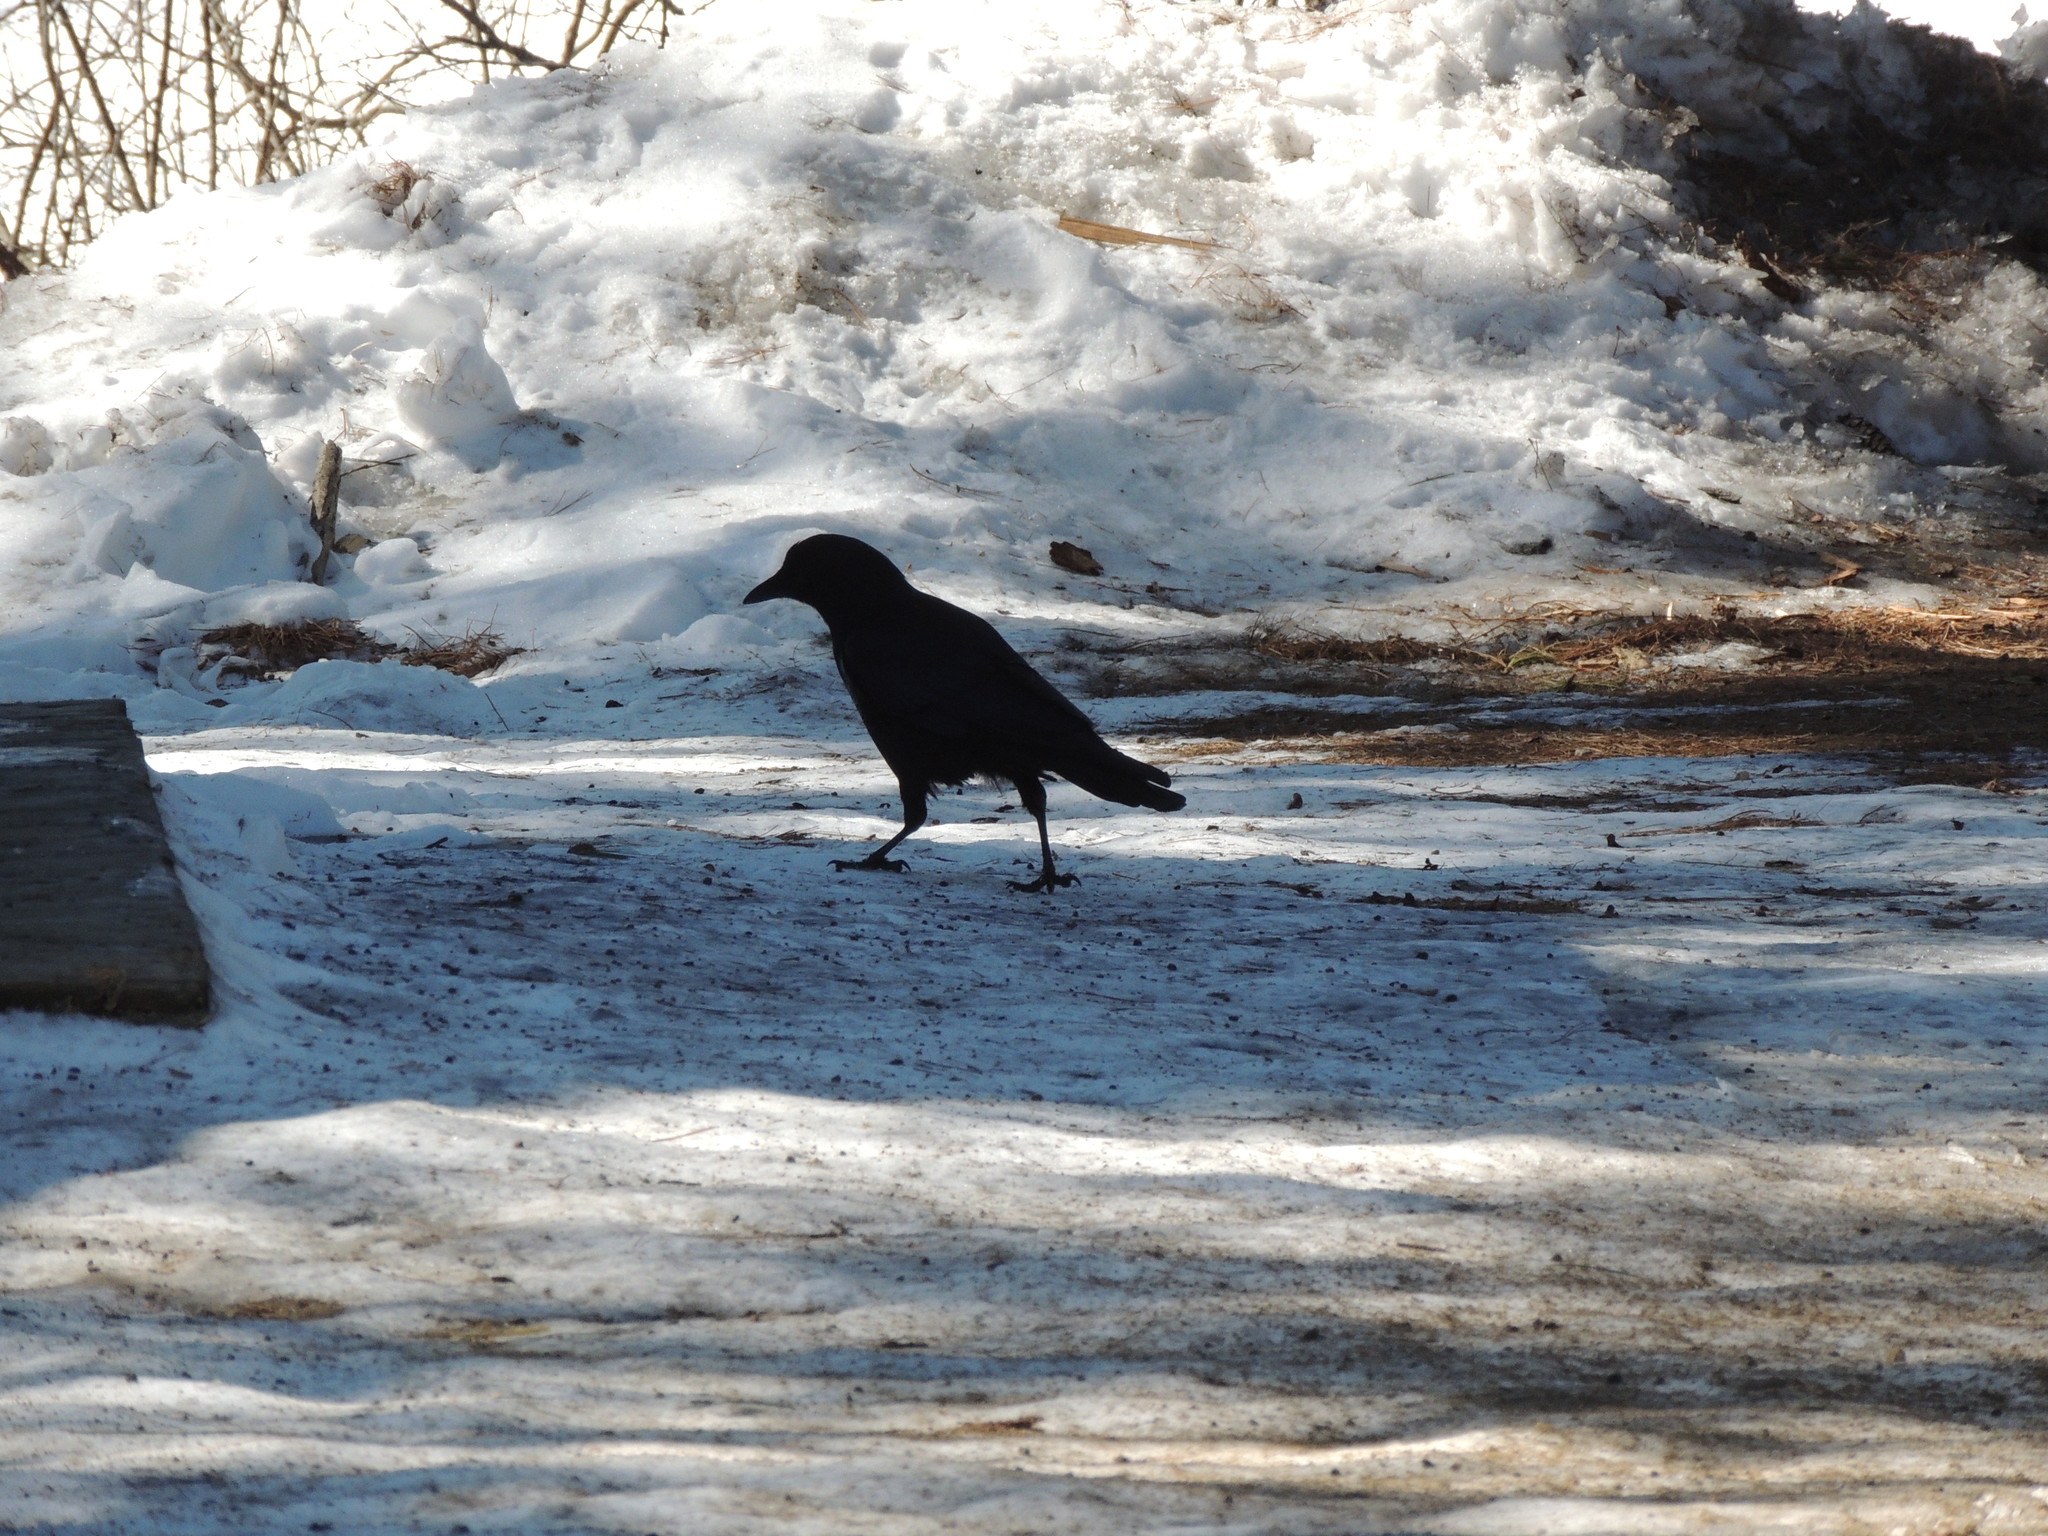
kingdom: Animalia
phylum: Chordata
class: Aves
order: Passeriformes
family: Corvidae
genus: Corvus
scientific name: Corvus brachyrhynchos
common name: American crow
